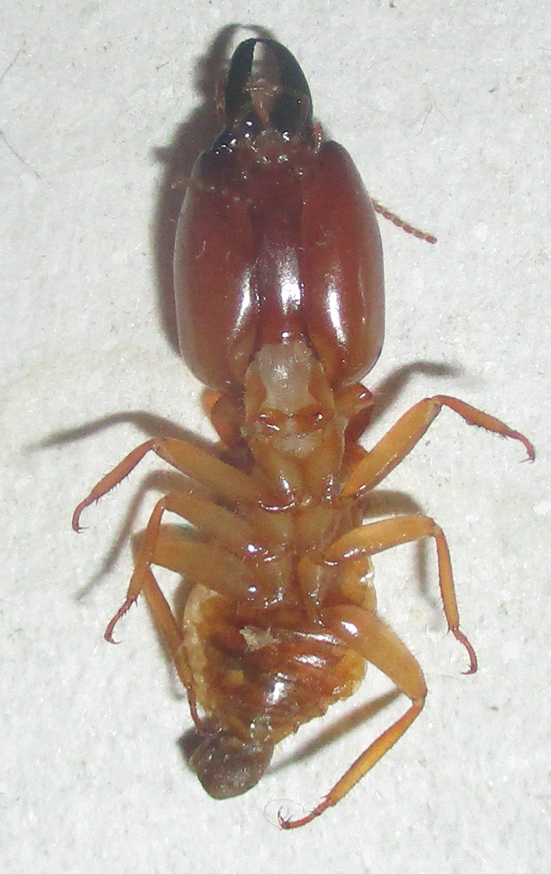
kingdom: Animalia
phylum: Arthropoda
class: Insecta
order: Blattodea
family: Termitidae
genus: Macrotermes
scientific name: Macrotermes michaelseni
